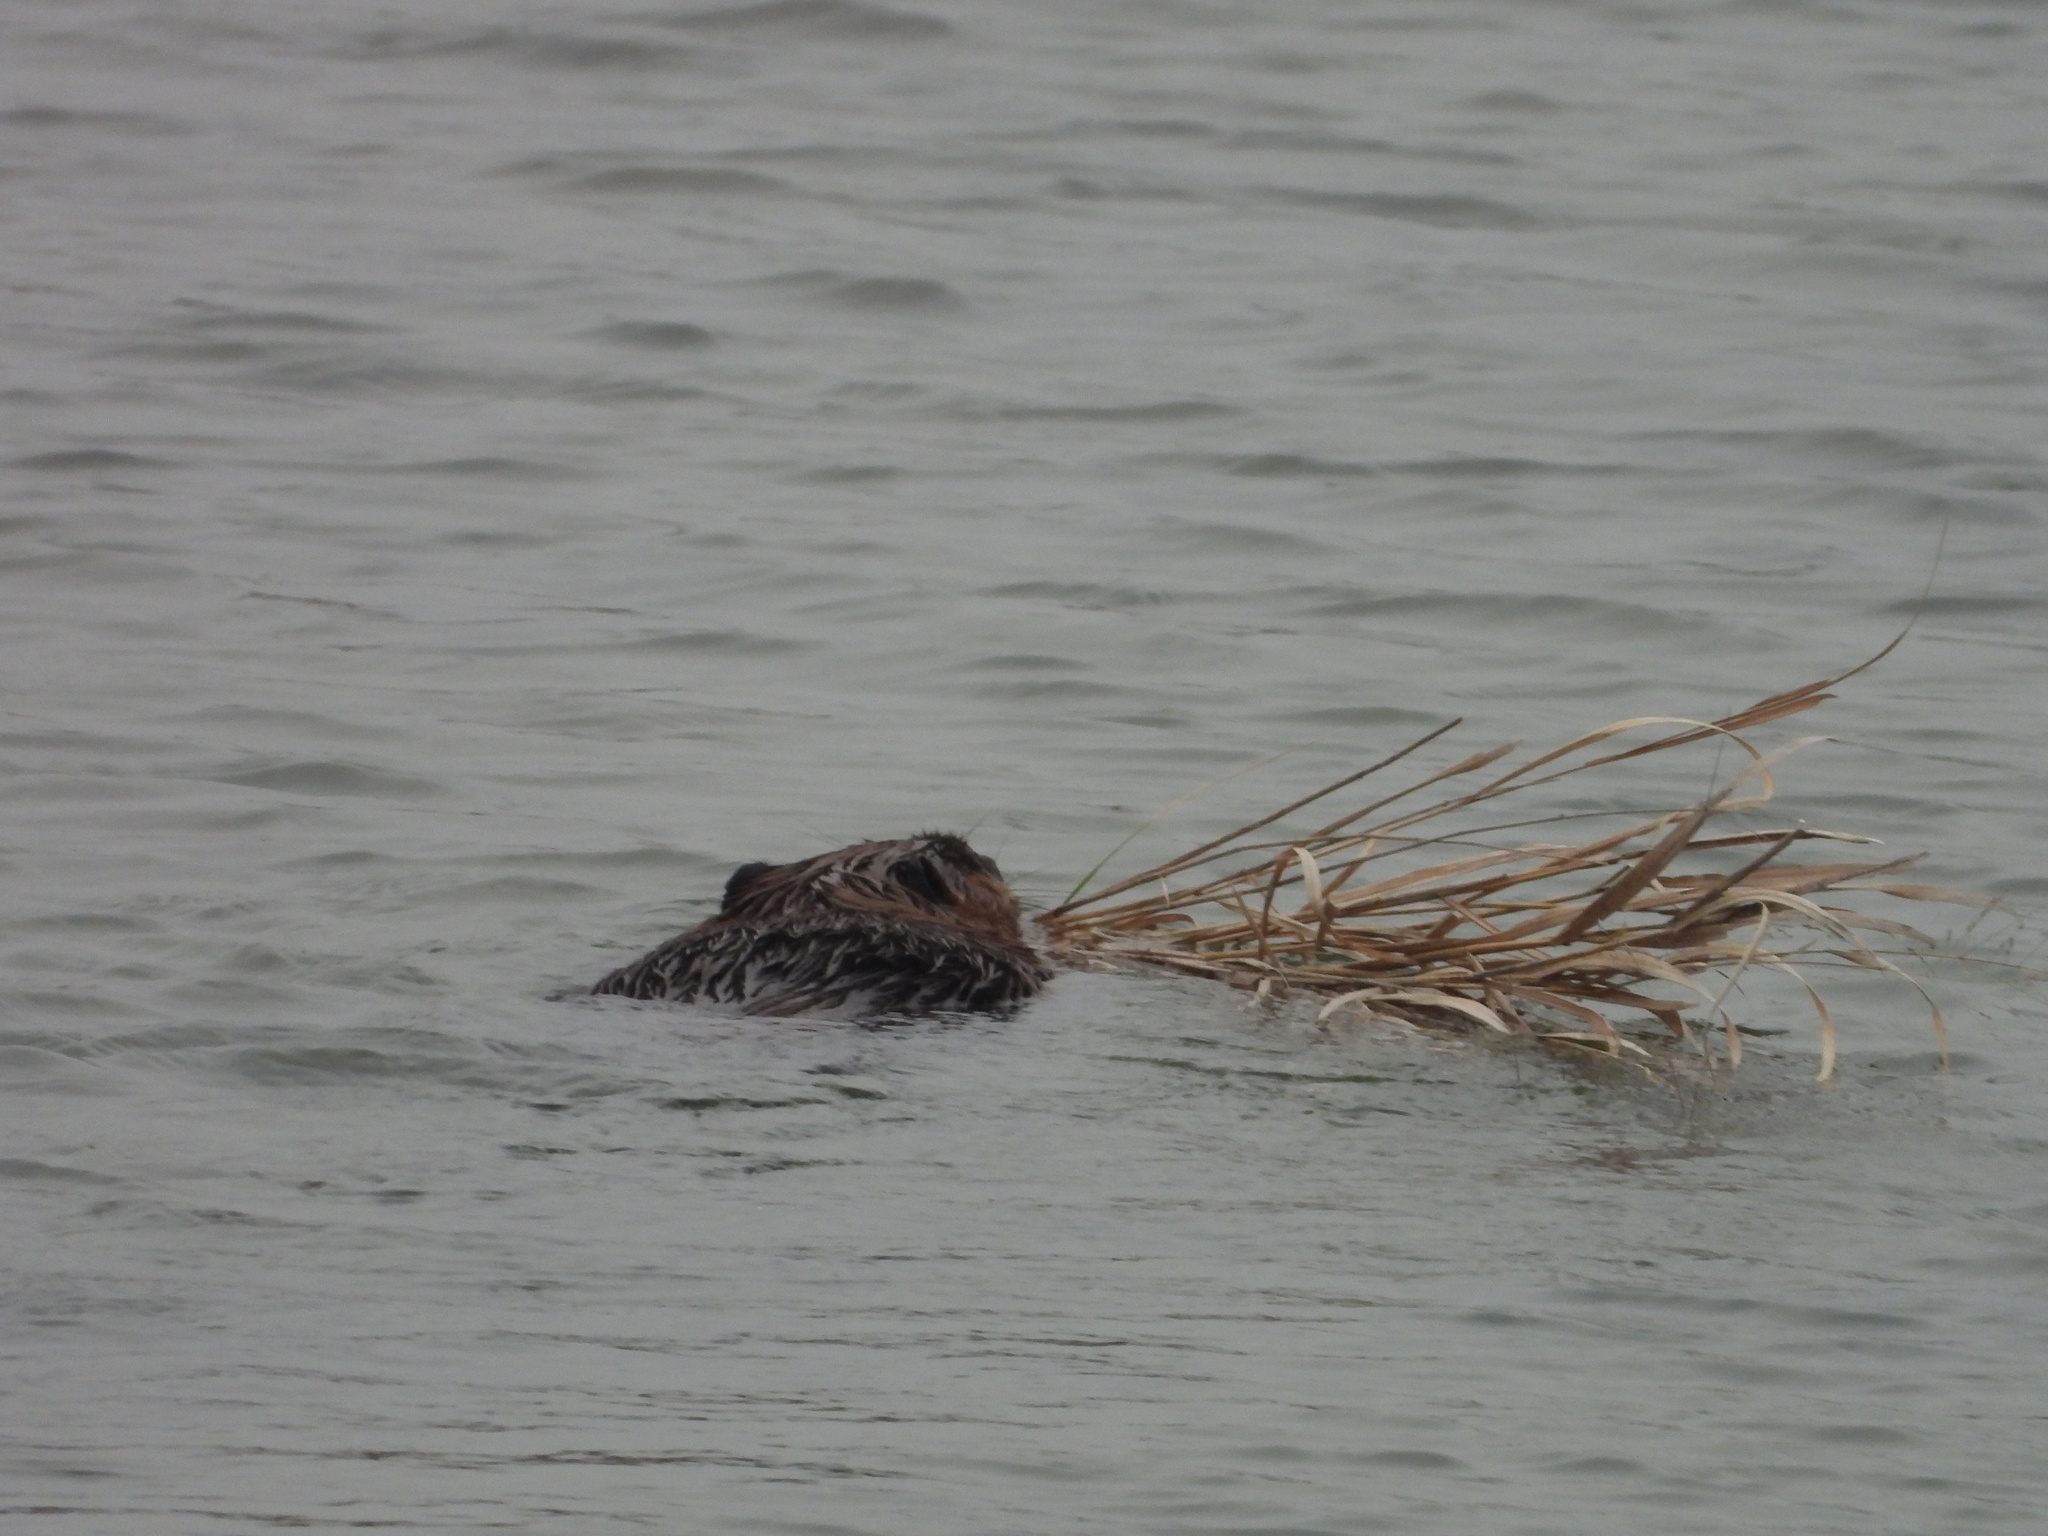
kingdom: Animalia
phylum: Chordata
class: Mammalia
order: Rodentia
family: Cricetidae
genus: Ondatra
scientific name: Ondatra zibethicus
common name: Muskrat
